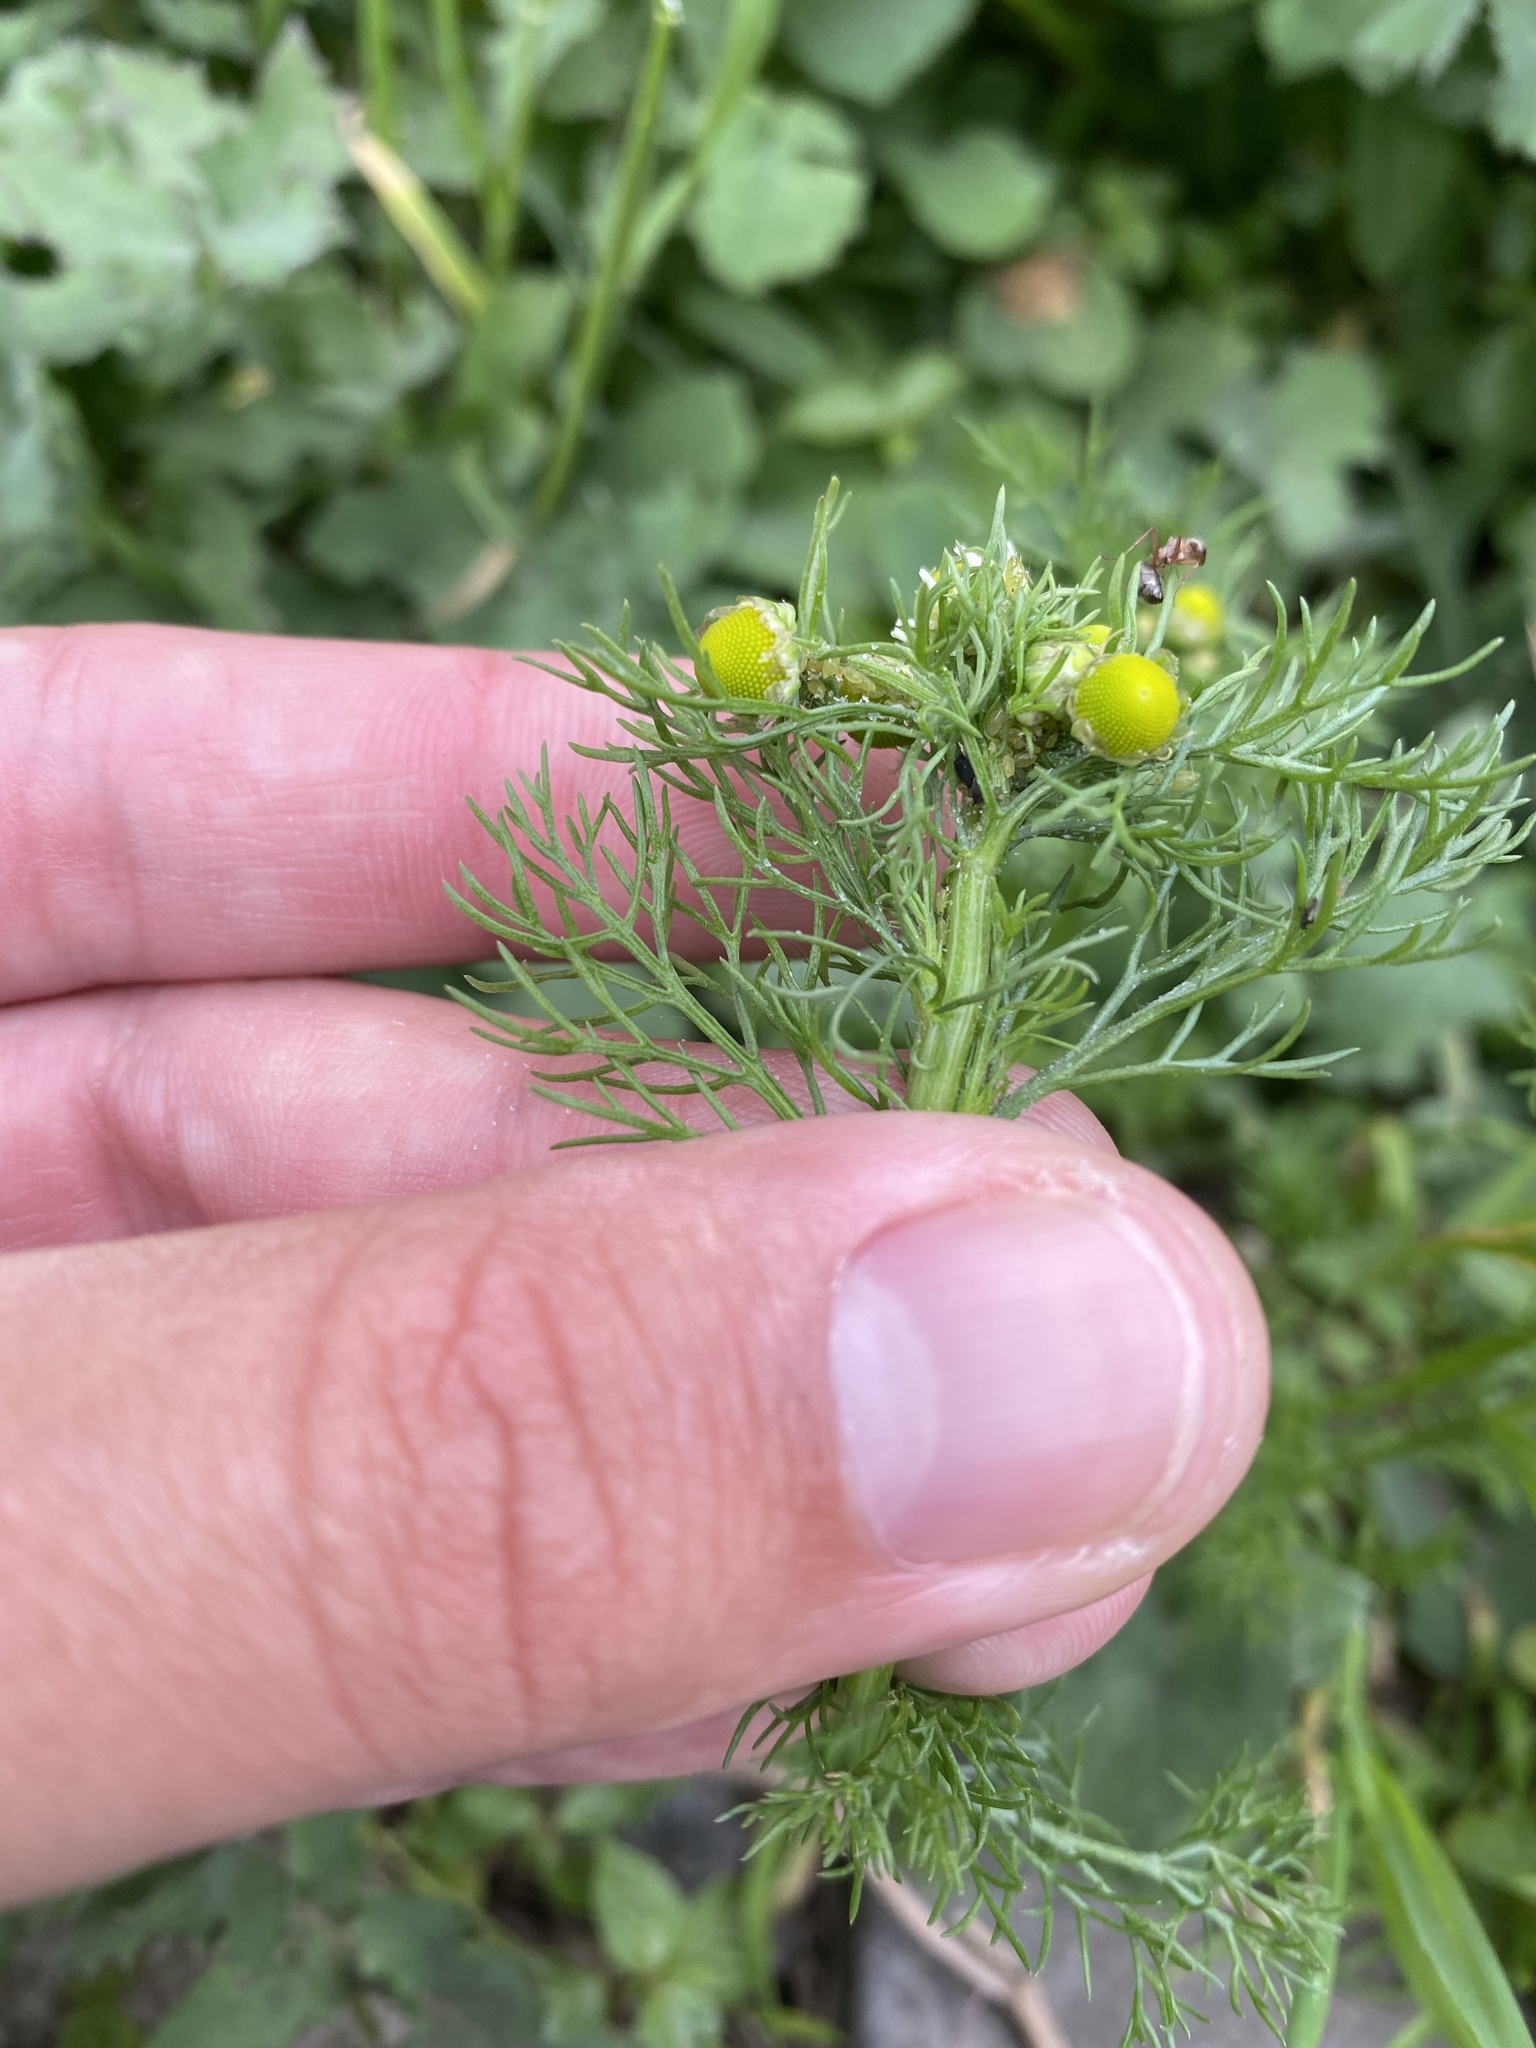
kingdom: Plantae
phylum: Tracheophyta
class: Magnoliopsida
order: Asterales
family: Asteraceae
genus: Matricaria
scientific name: Matricaria chamomilla
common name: Scented mayweed
